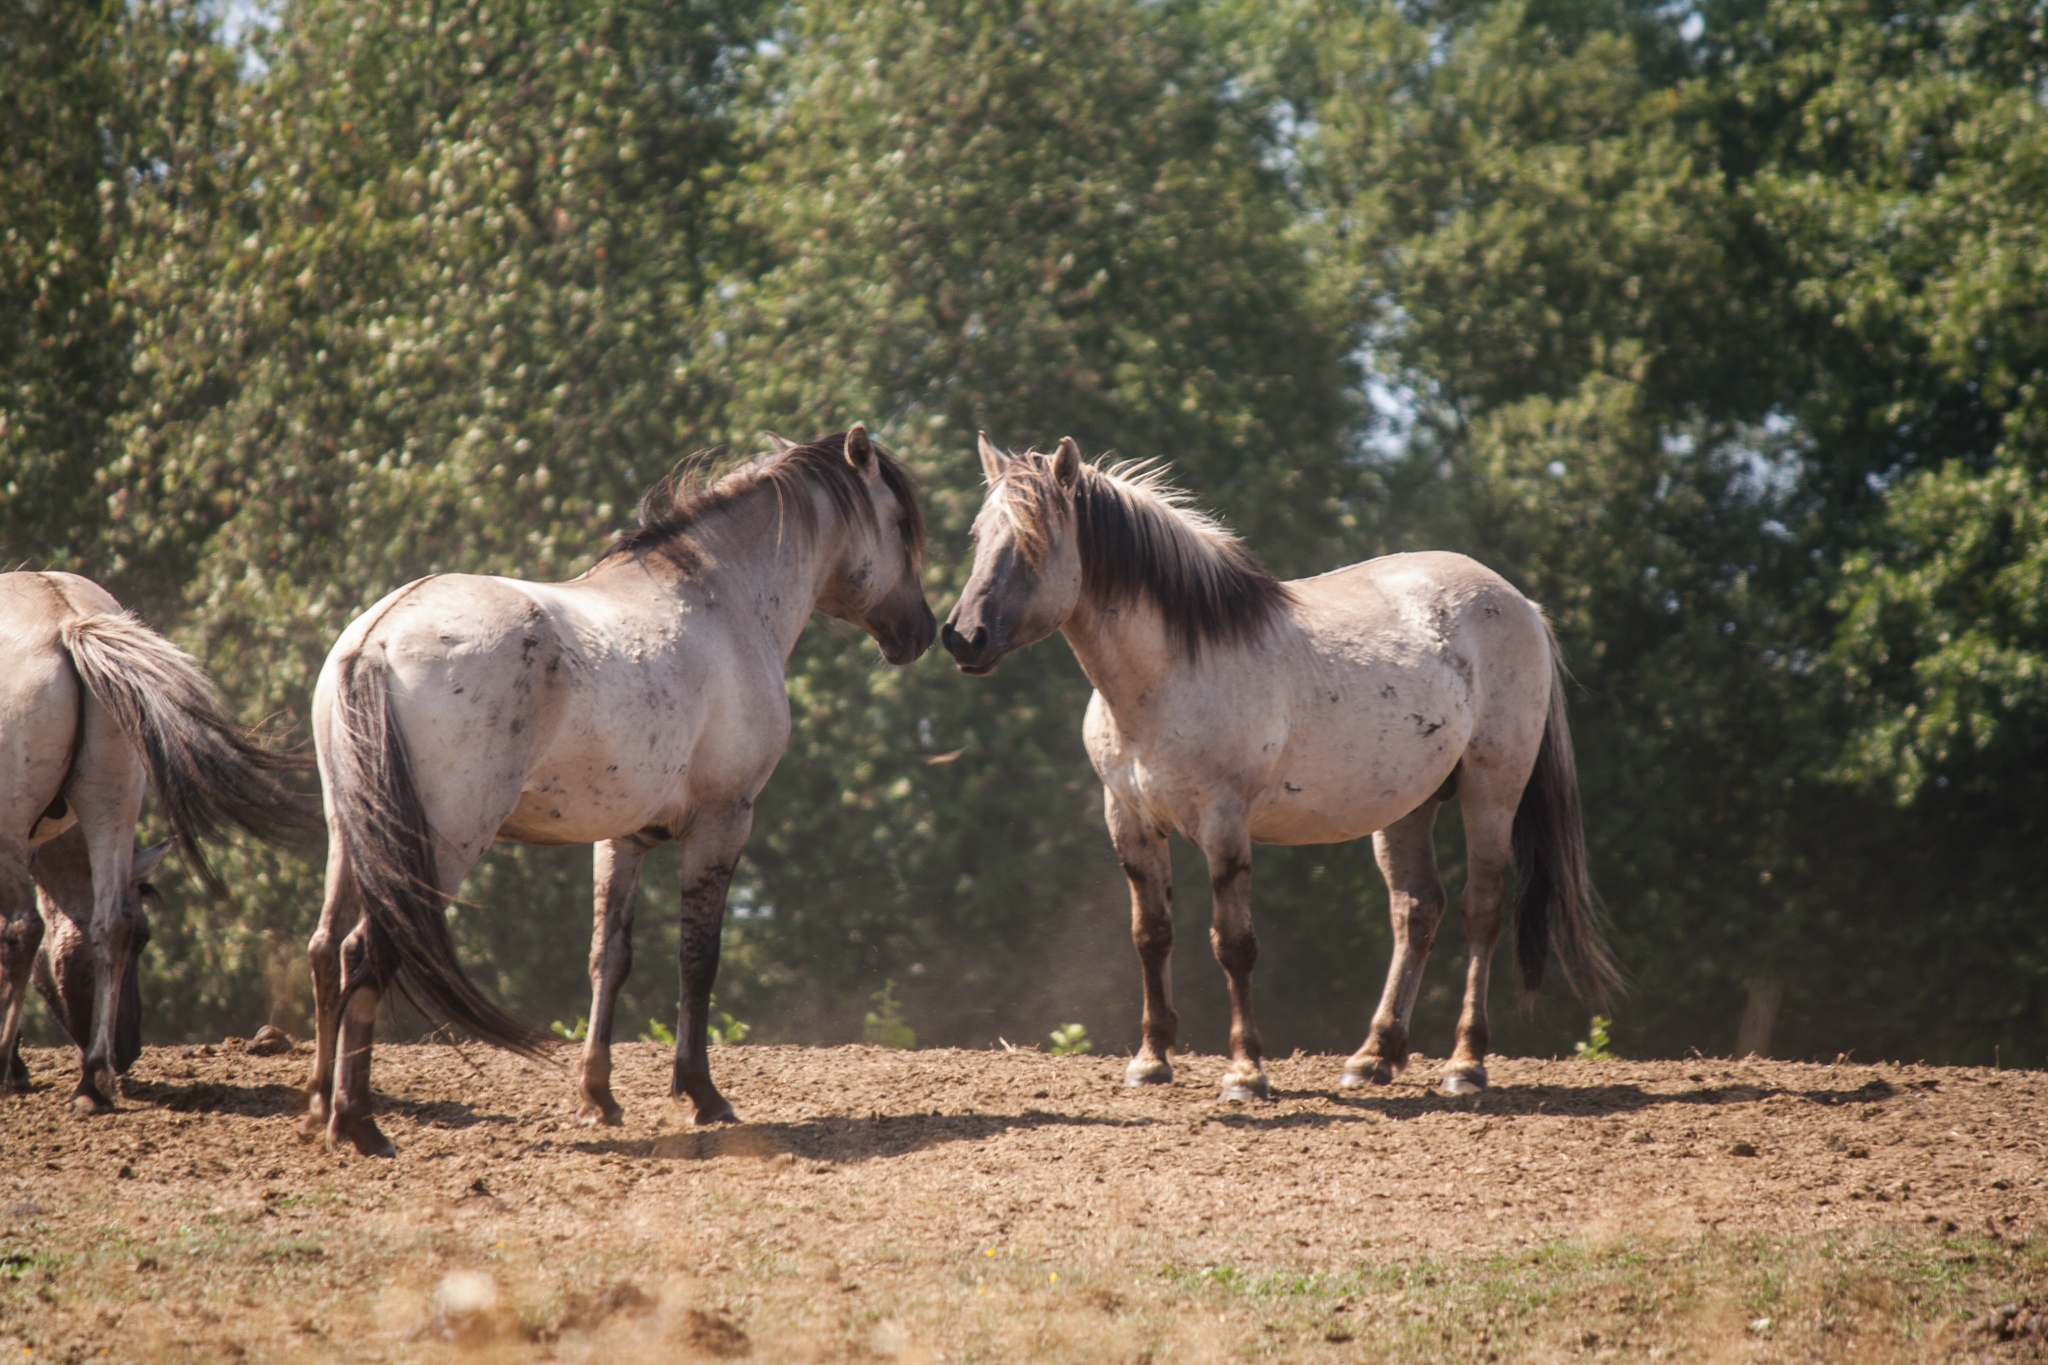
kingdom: Animalia
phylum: Chordata
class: Mammalia
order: Perissodactyla
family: Equidae
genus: Equus
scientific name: Equus caballus
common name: Horse
